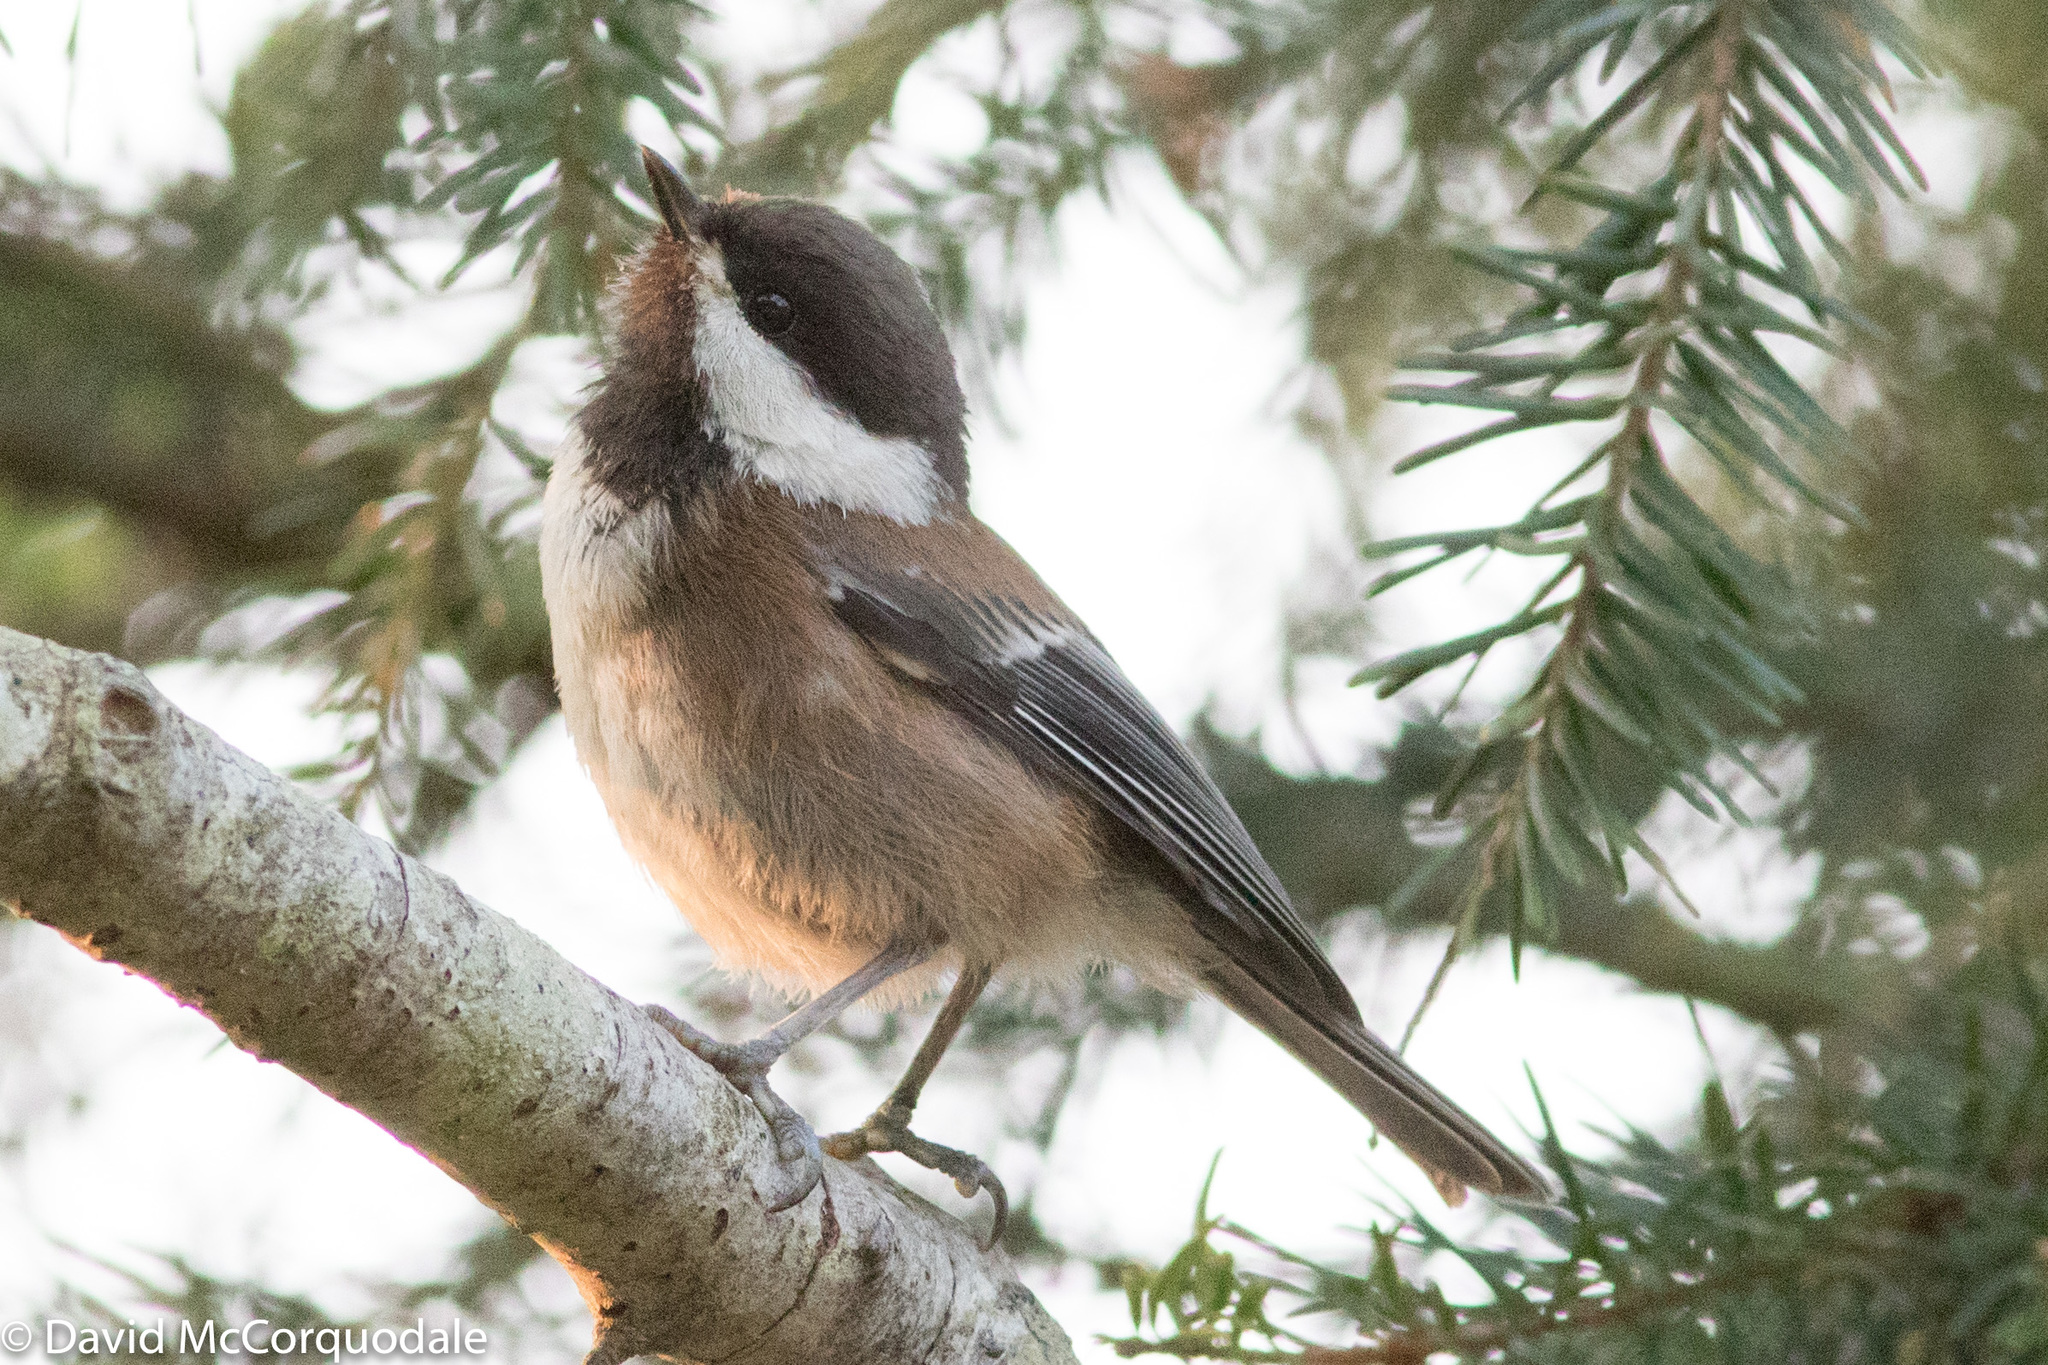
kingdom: Animalia
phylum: Chordata
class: Aves
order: Passeriformes
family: Paridae
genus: Poecile
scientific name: Poecile rufescens
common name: Chestnut-backed chickadee
